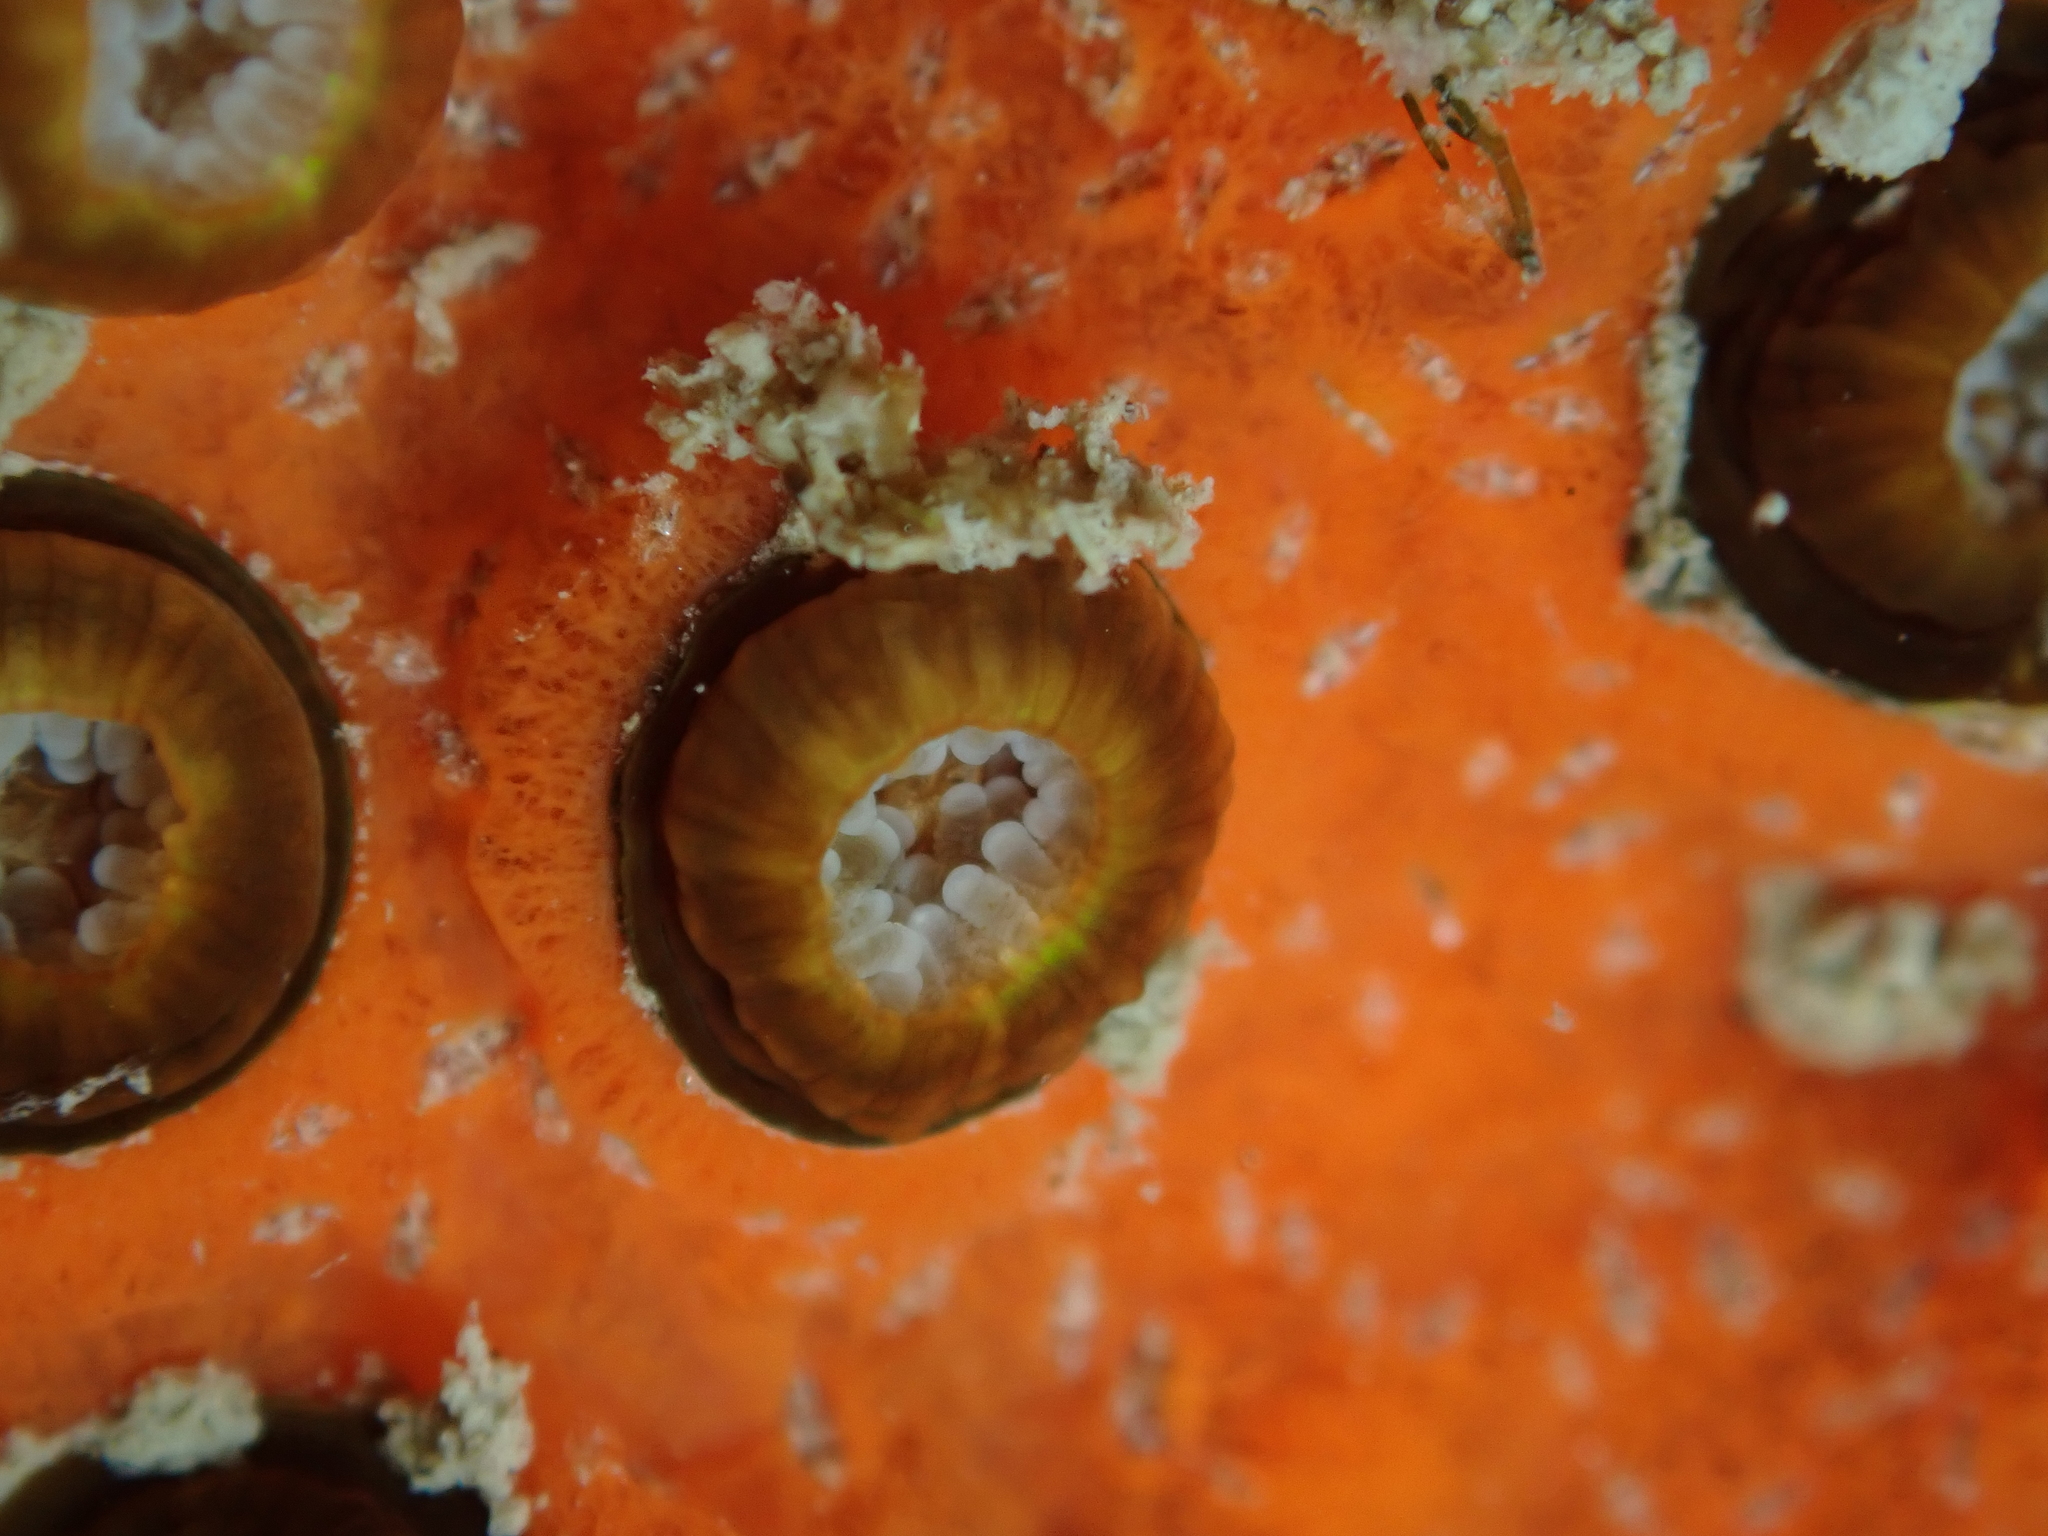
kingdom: Animalia
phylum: Cnidaria
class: Anthozoa
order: Scleractinia
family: Rhizangiidae
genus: Culicia
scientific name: Culicia rubeola
